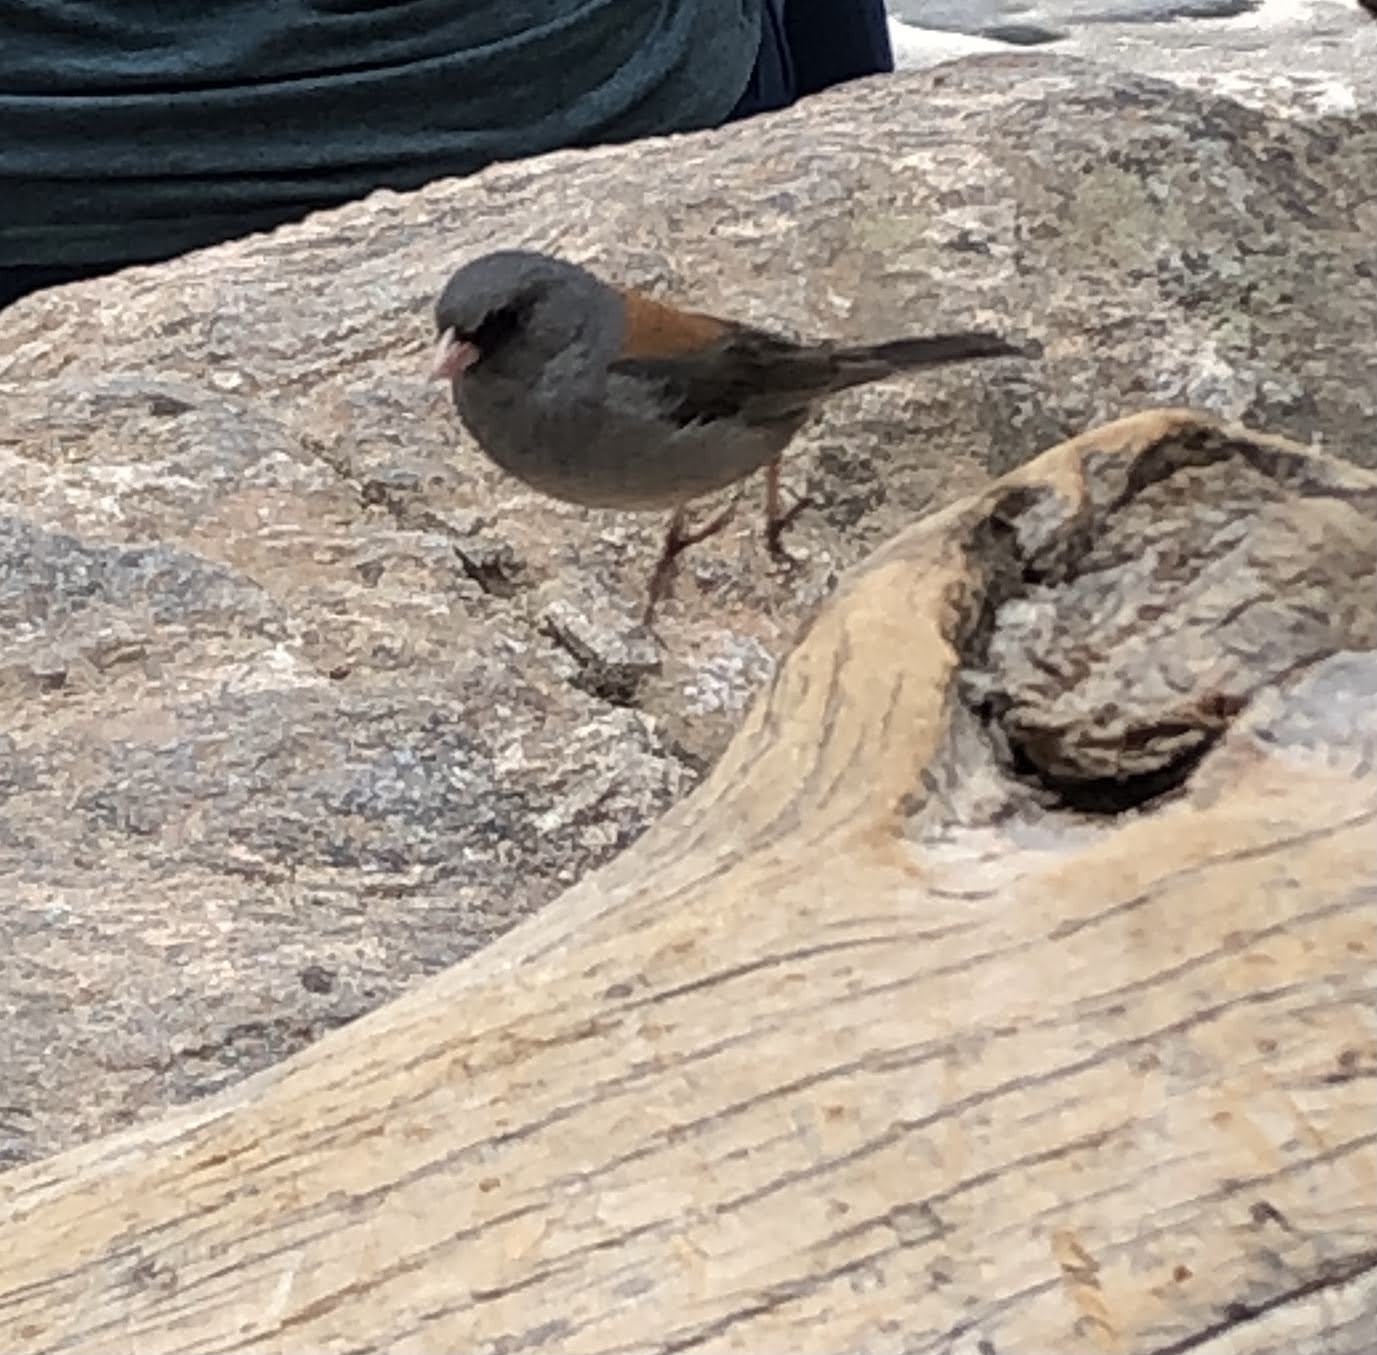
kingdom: Animalia
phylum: Chordata
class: Aves
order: Passeriformes
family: Passerellidae
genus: Junco
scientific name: Junco hyemalis
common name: Dark-eyed junco
